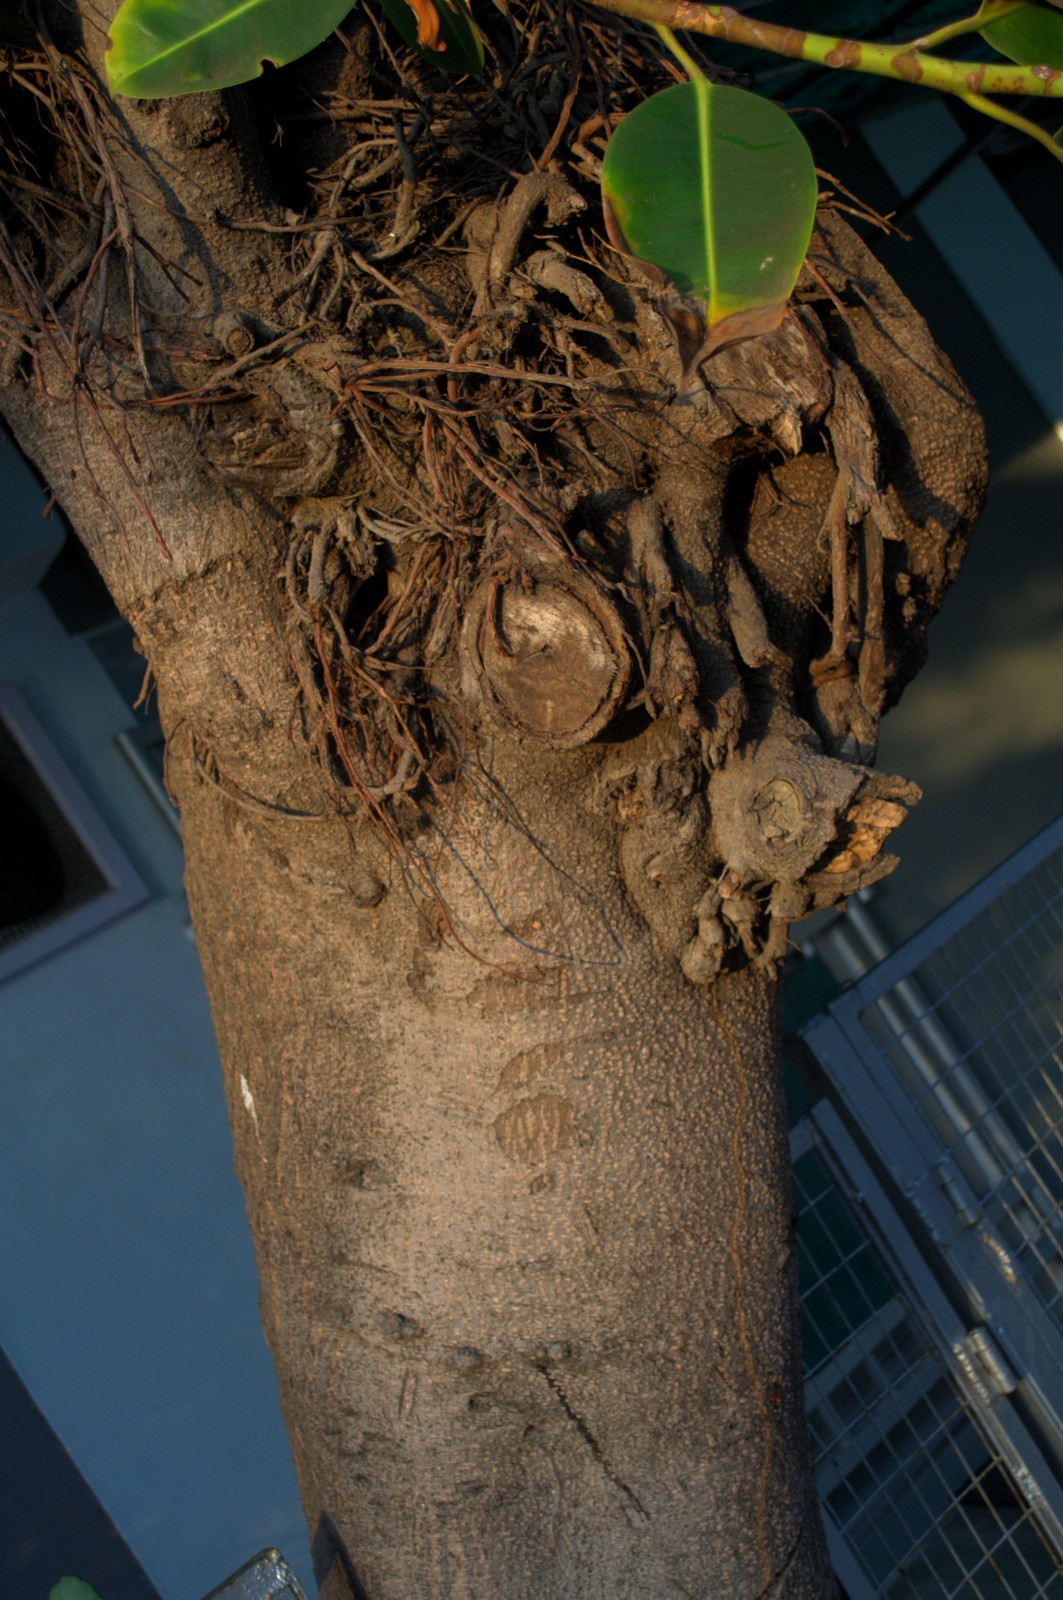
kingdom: Plantae
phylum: Tracheophyta
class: Magnoliopsida
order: Rosales
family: Moraceae
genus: Ficus
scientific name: Ficus elastica
